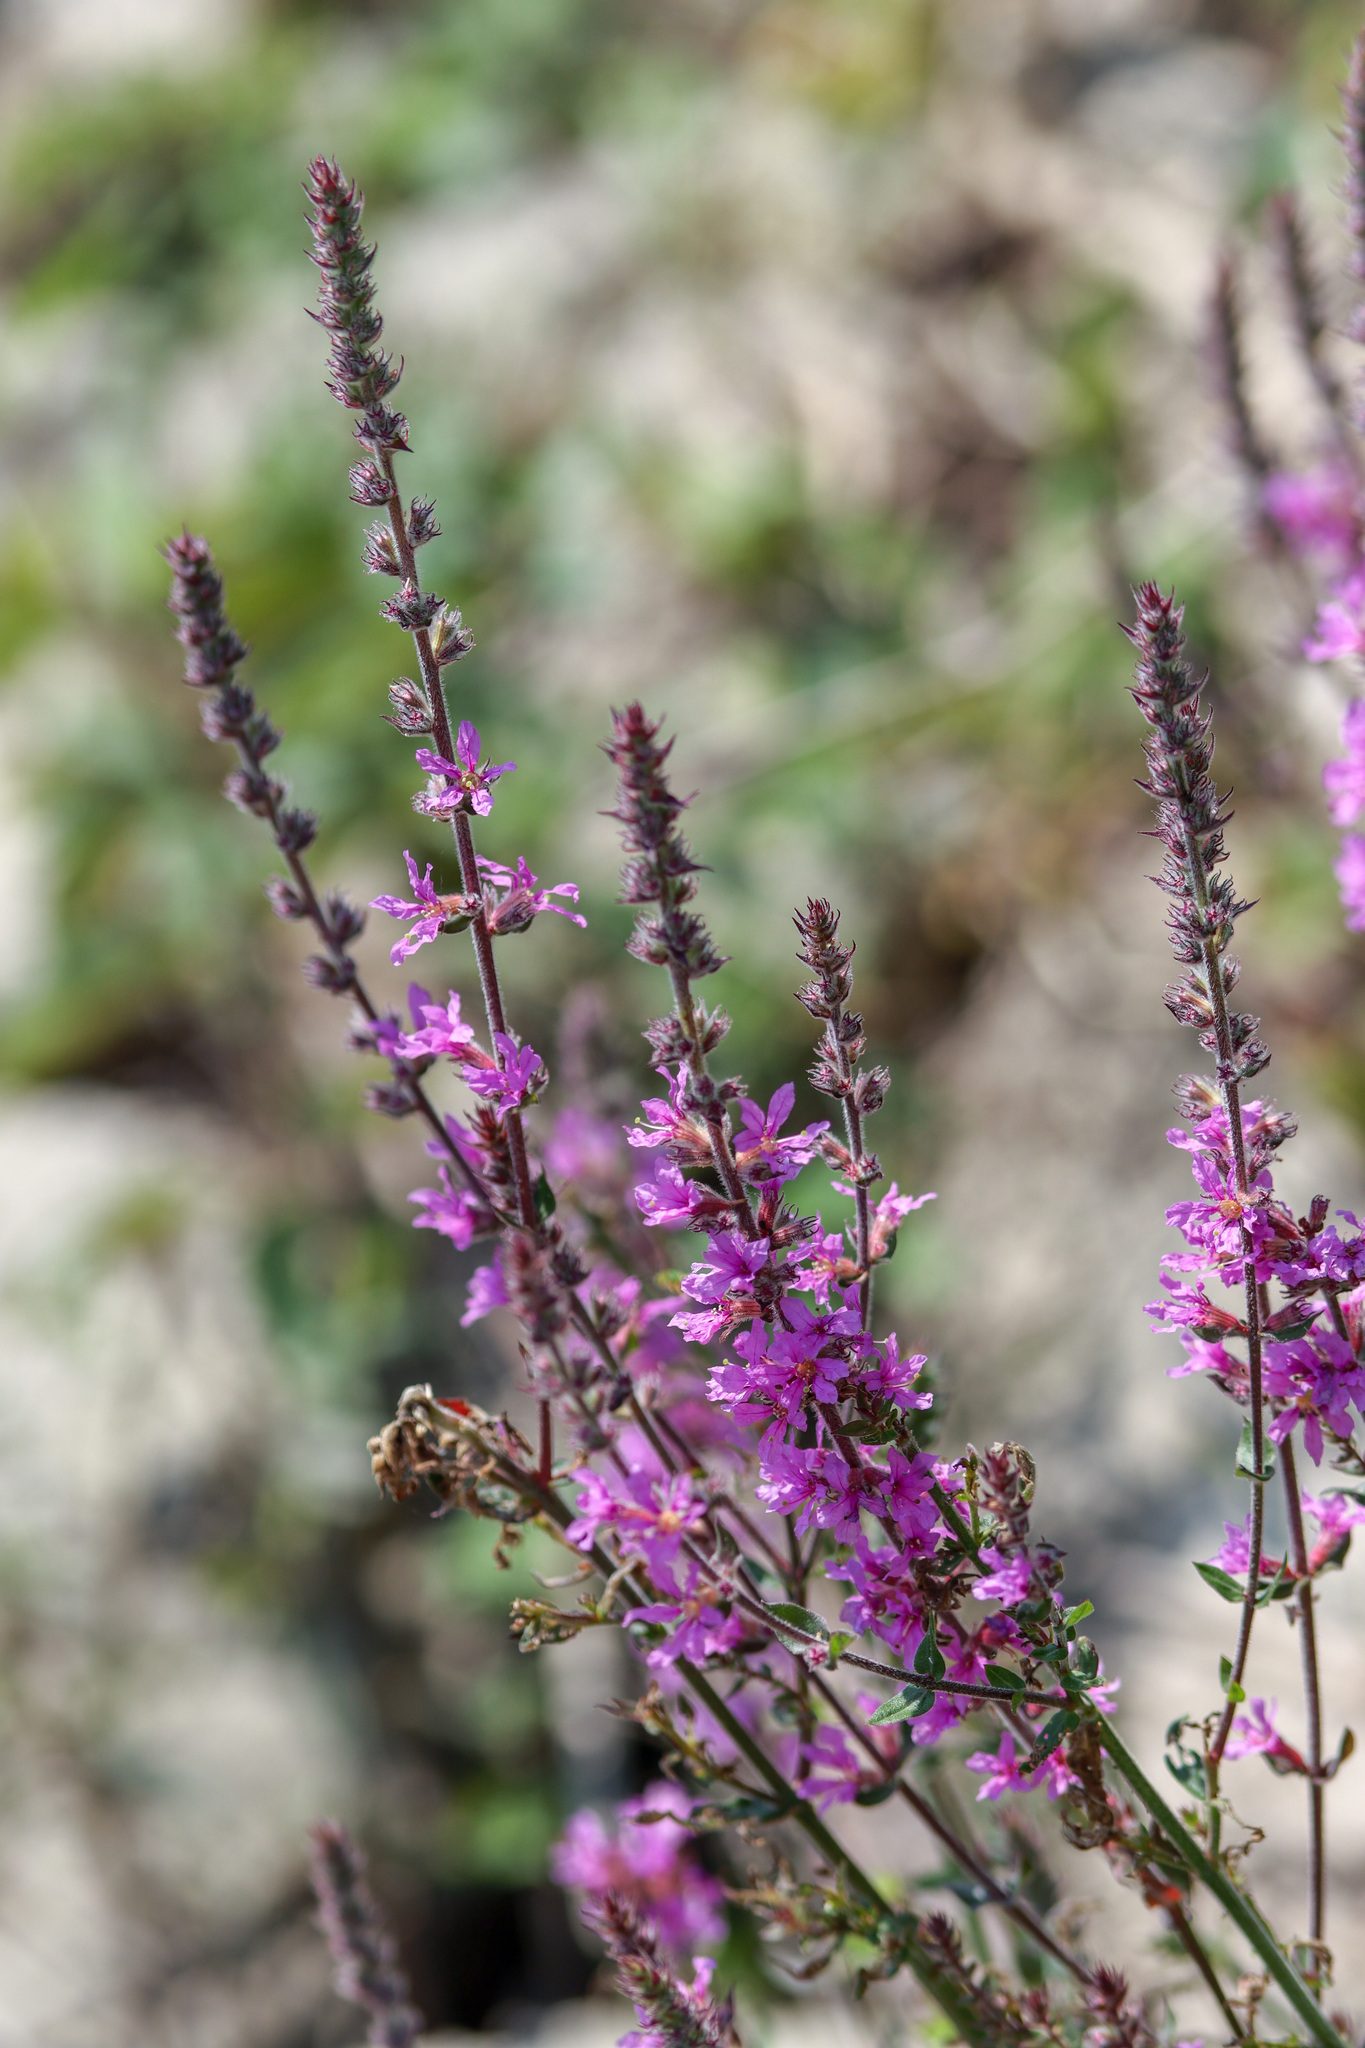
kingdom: Plantae
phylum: Tracheophyta
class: Magnoliopsida
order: Myrtales
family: Lythraceae
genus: Lythrum
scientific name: Lythrum salicaria
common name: Purple loosestrife
